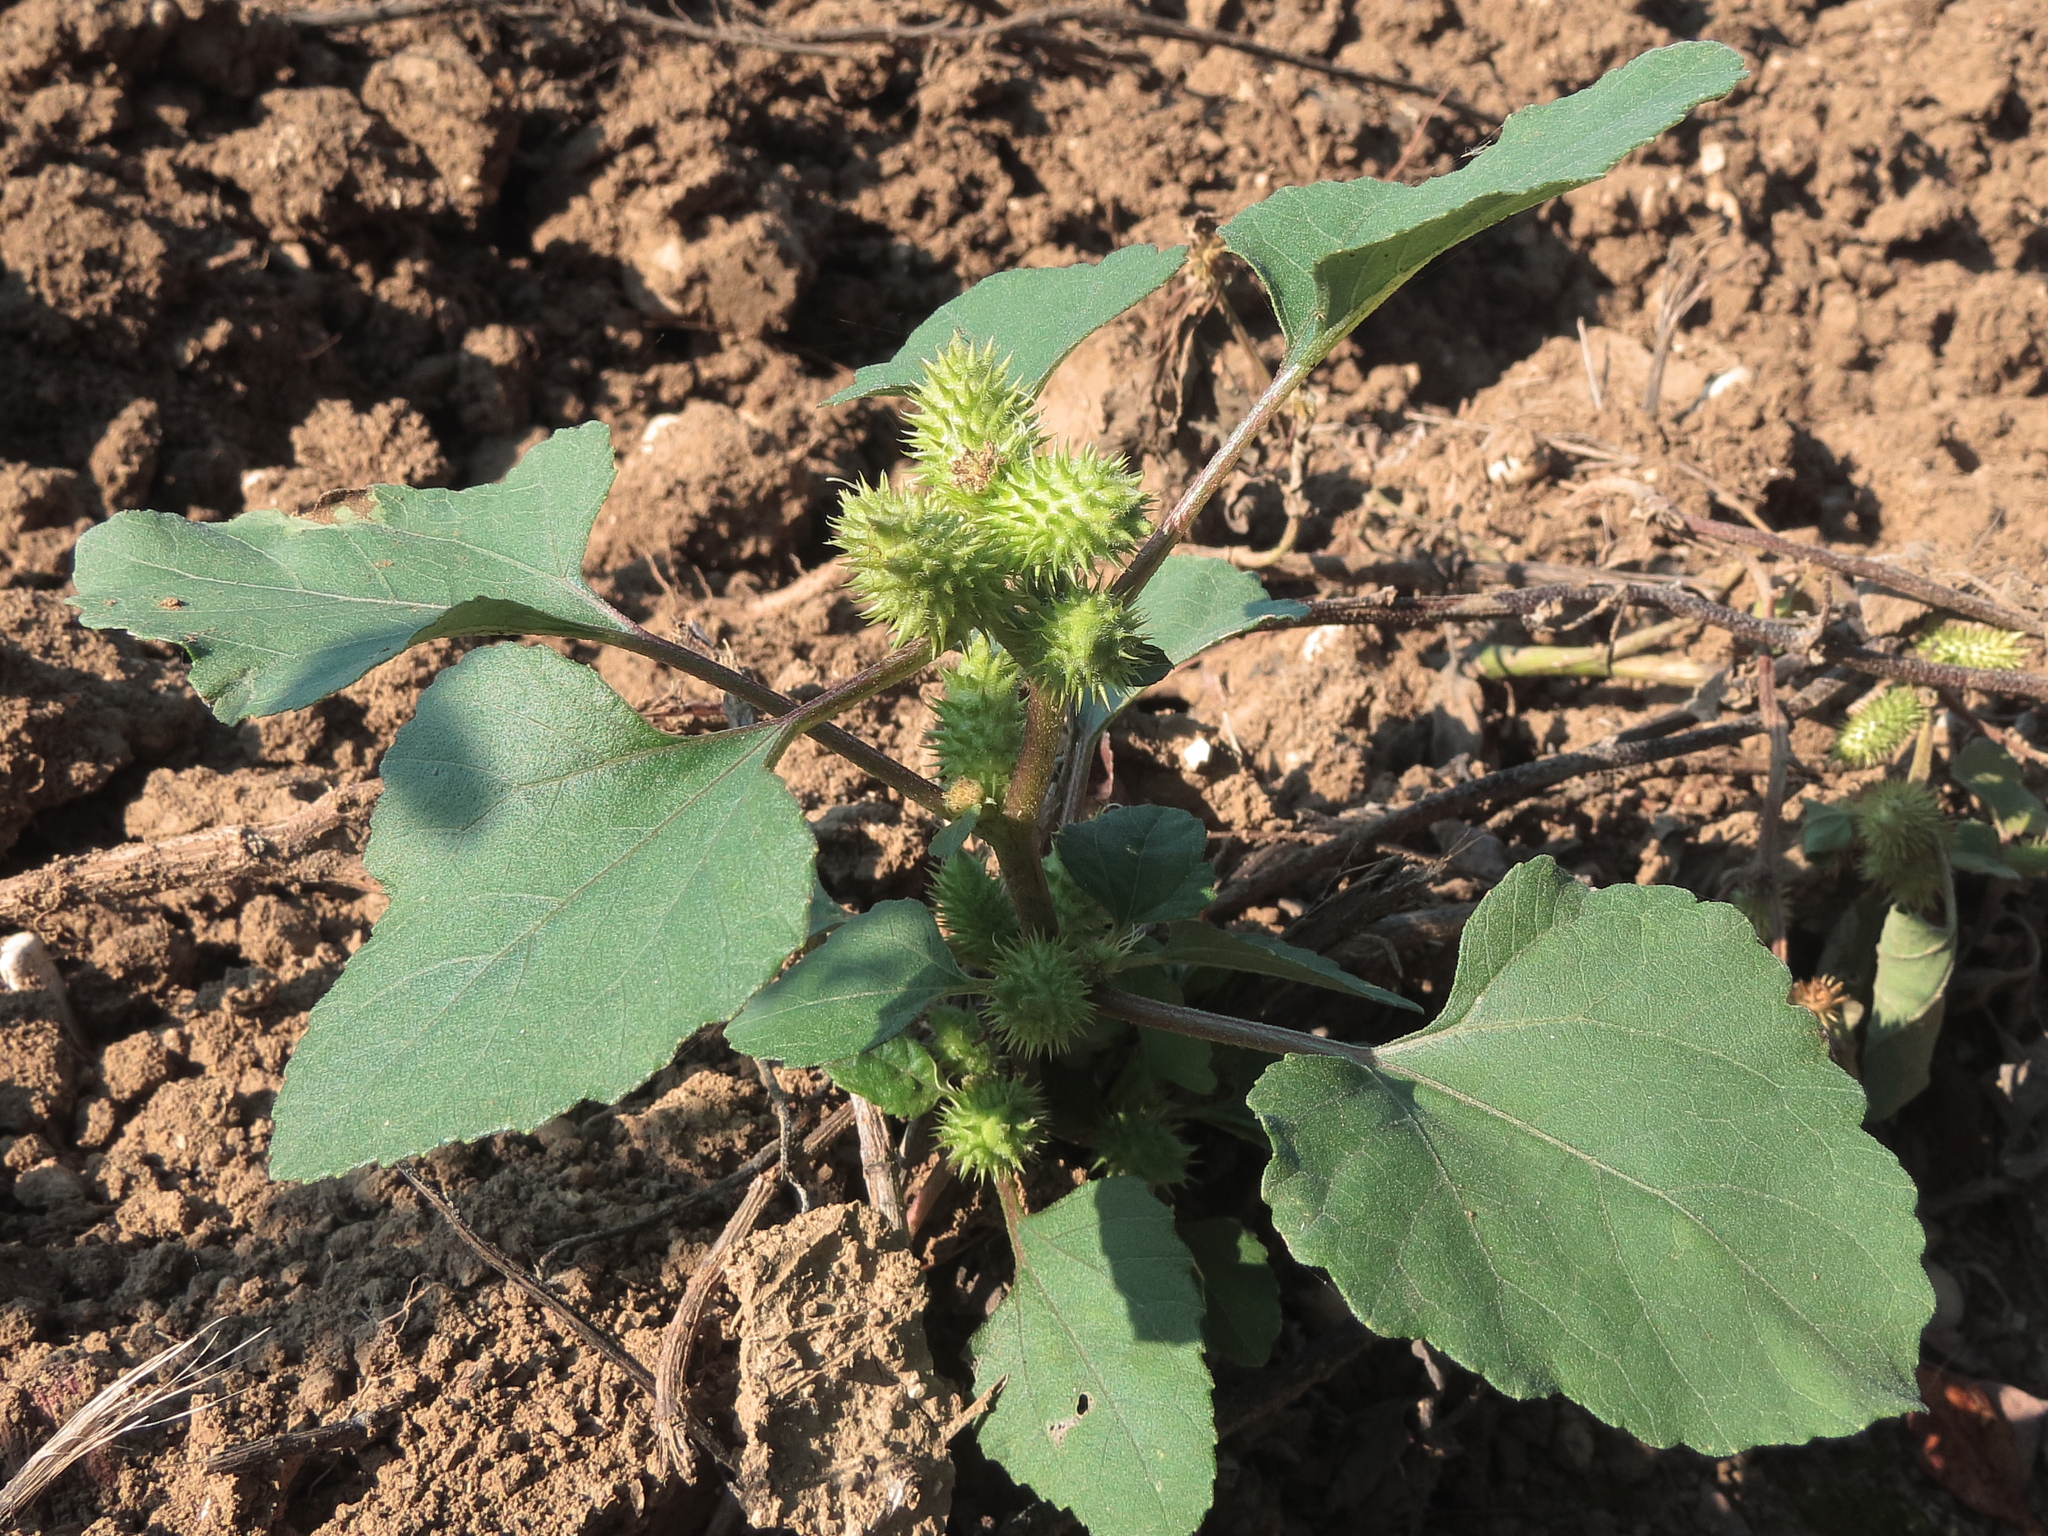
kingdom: Plantae
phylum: Tracheophyta
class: Magnoliopsida
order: Asterales
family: Asteraceae
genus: Xanthium
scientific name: Xanthium orientale
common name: Californian burr
